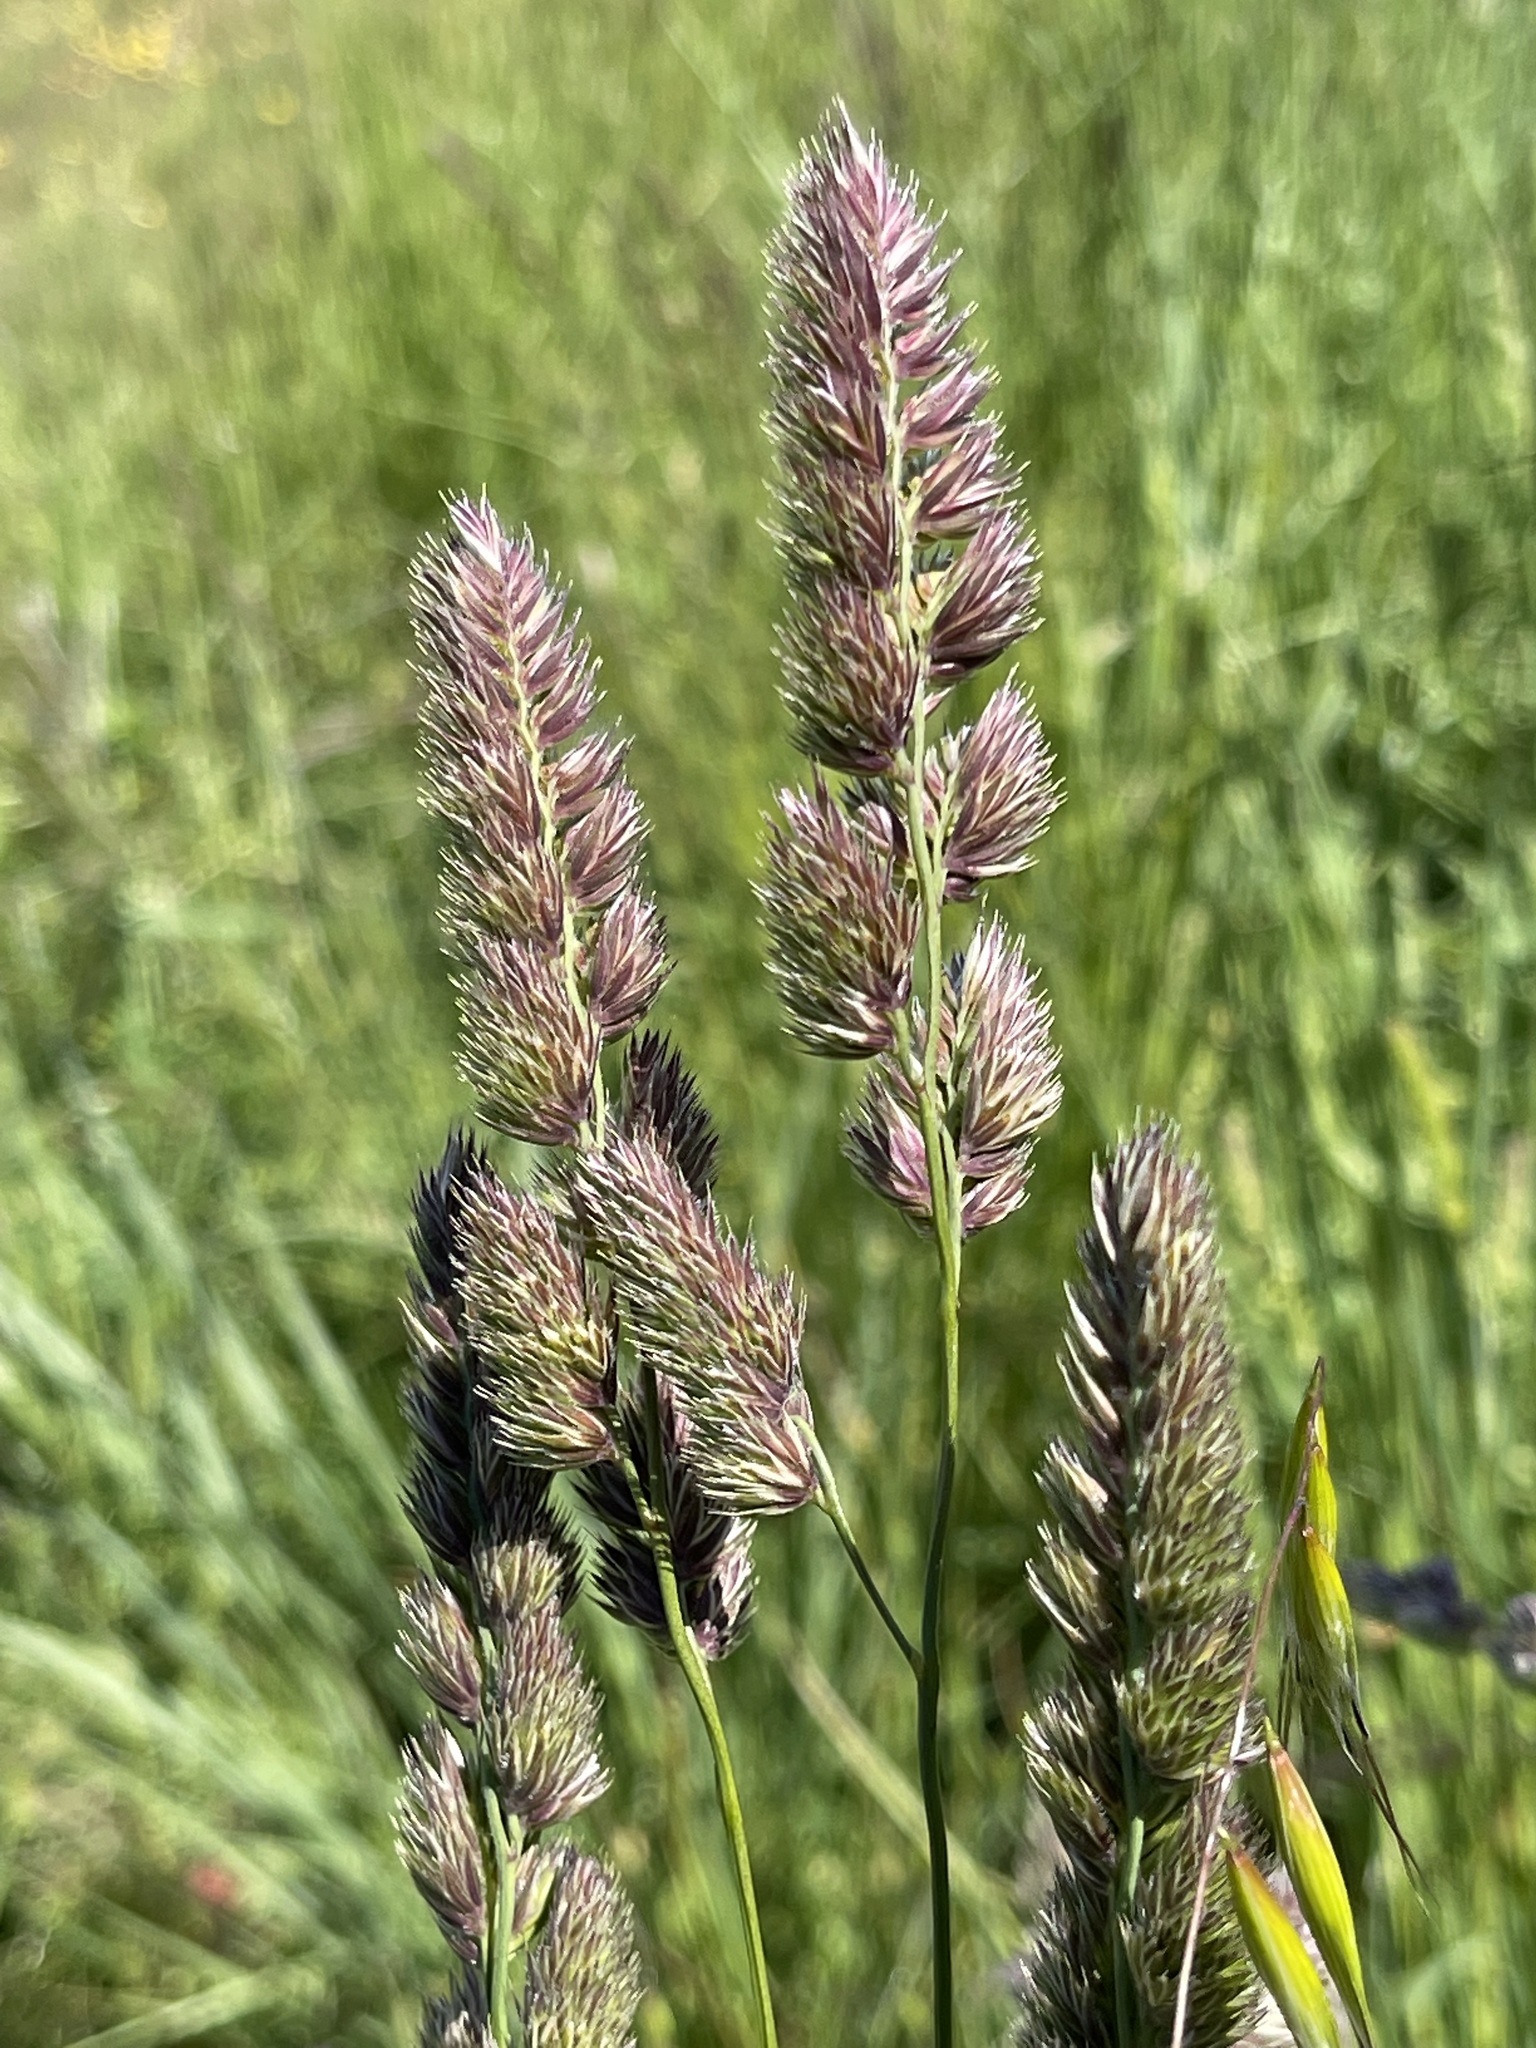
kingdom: Plantae
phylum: Tracheophyta
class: Liliopsida
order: Poales
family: Poaceae
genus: Dactylis
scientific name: Dactylis glomerata
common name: Orchardgrass
